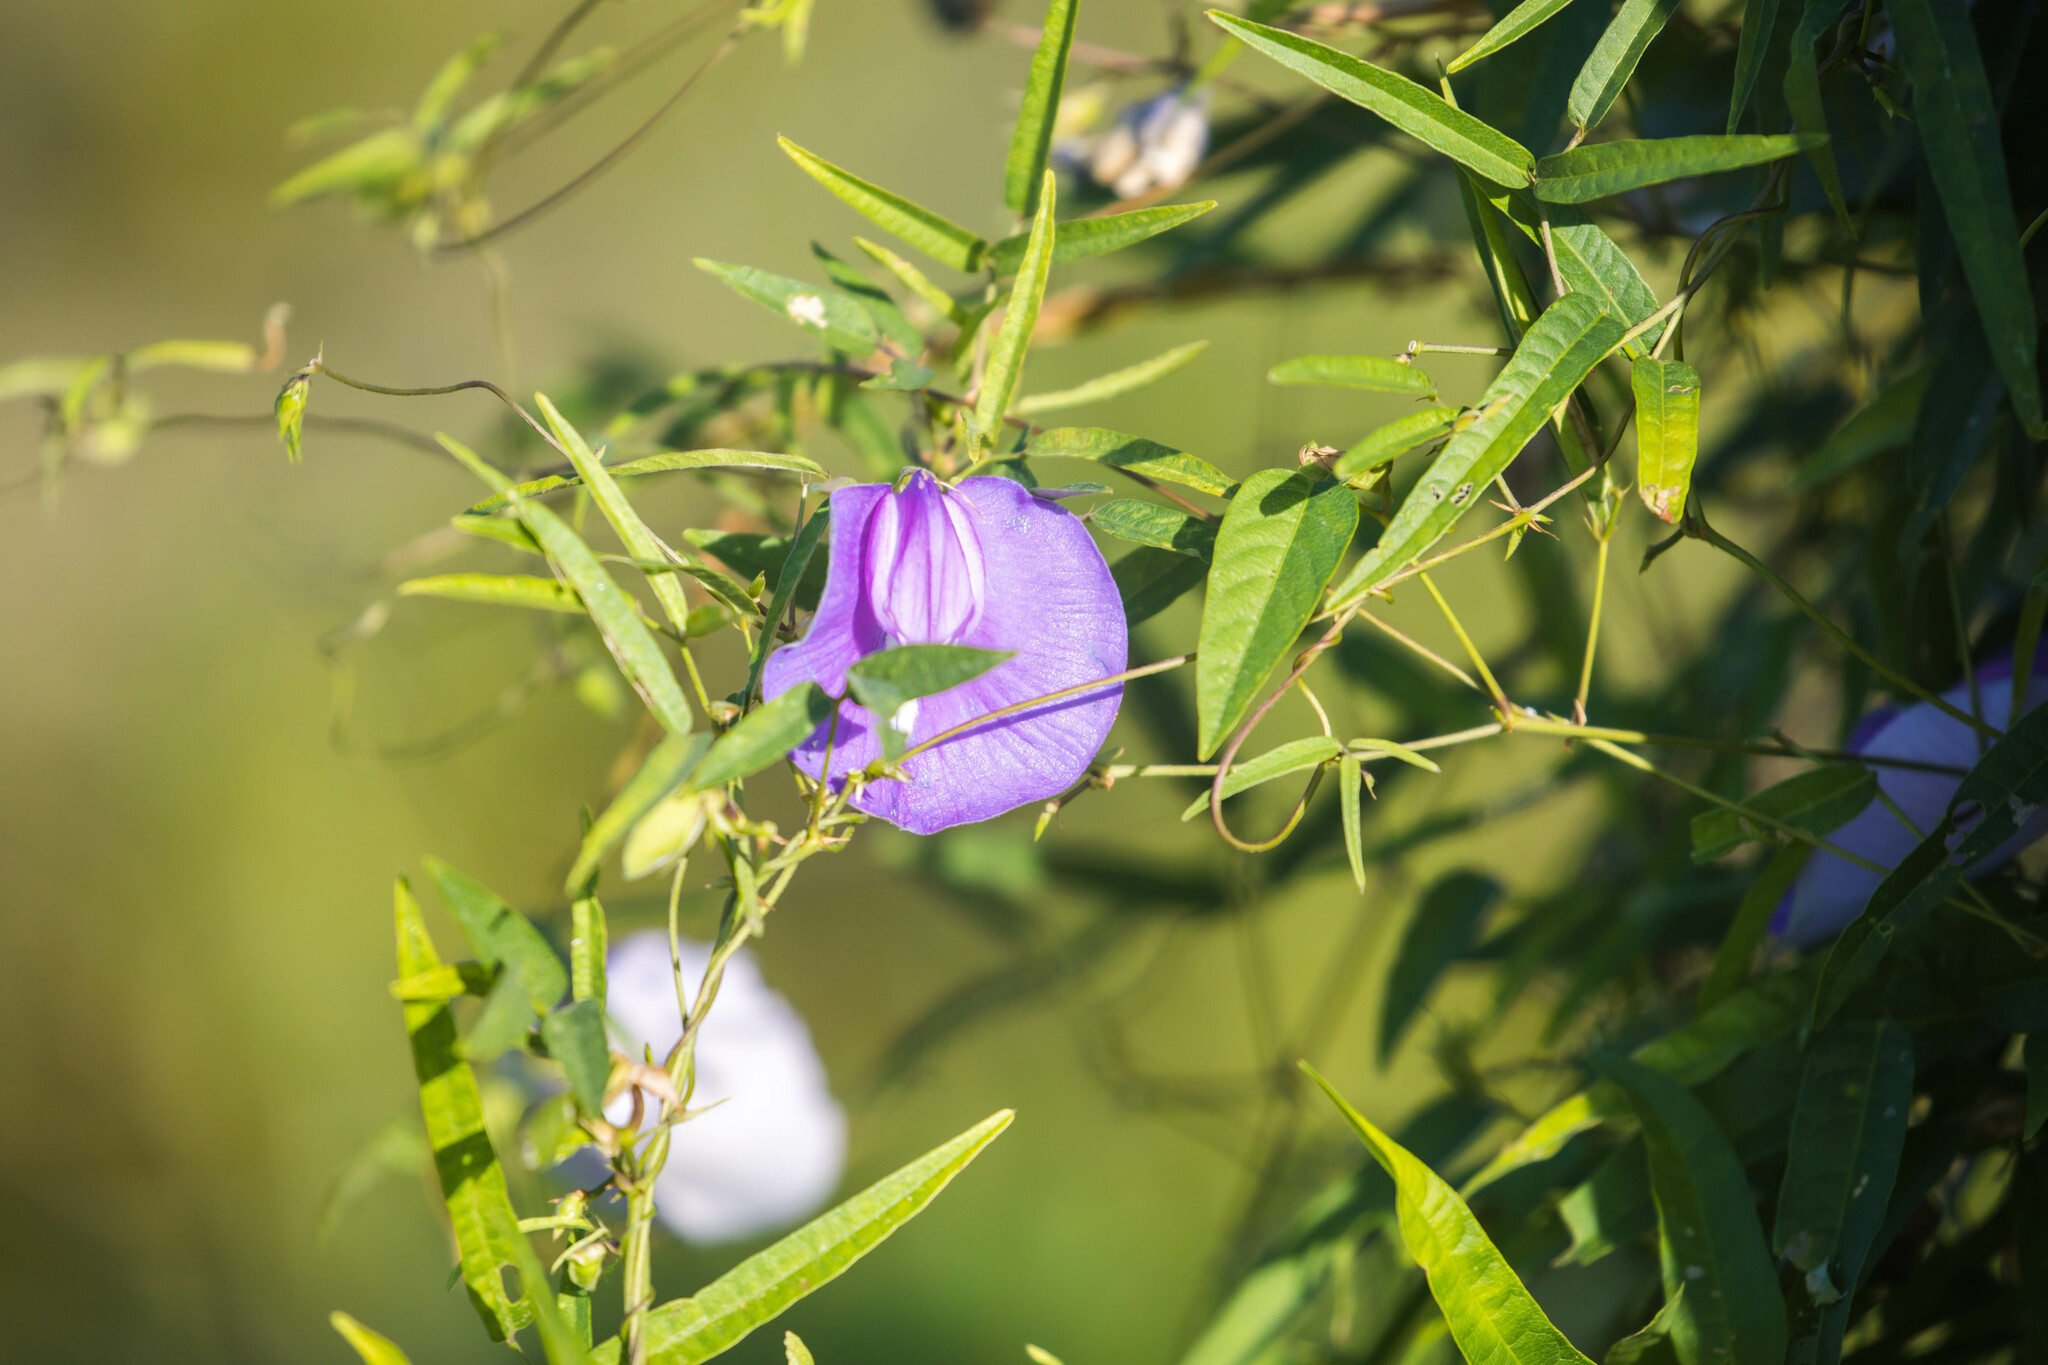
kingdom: Plantae
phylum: Tracheophyta
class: Magnoliopsida
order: Fabales
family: Fabaceae
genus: Centrosema
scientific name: Centrosema virginianum
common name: Butterfly-pea
